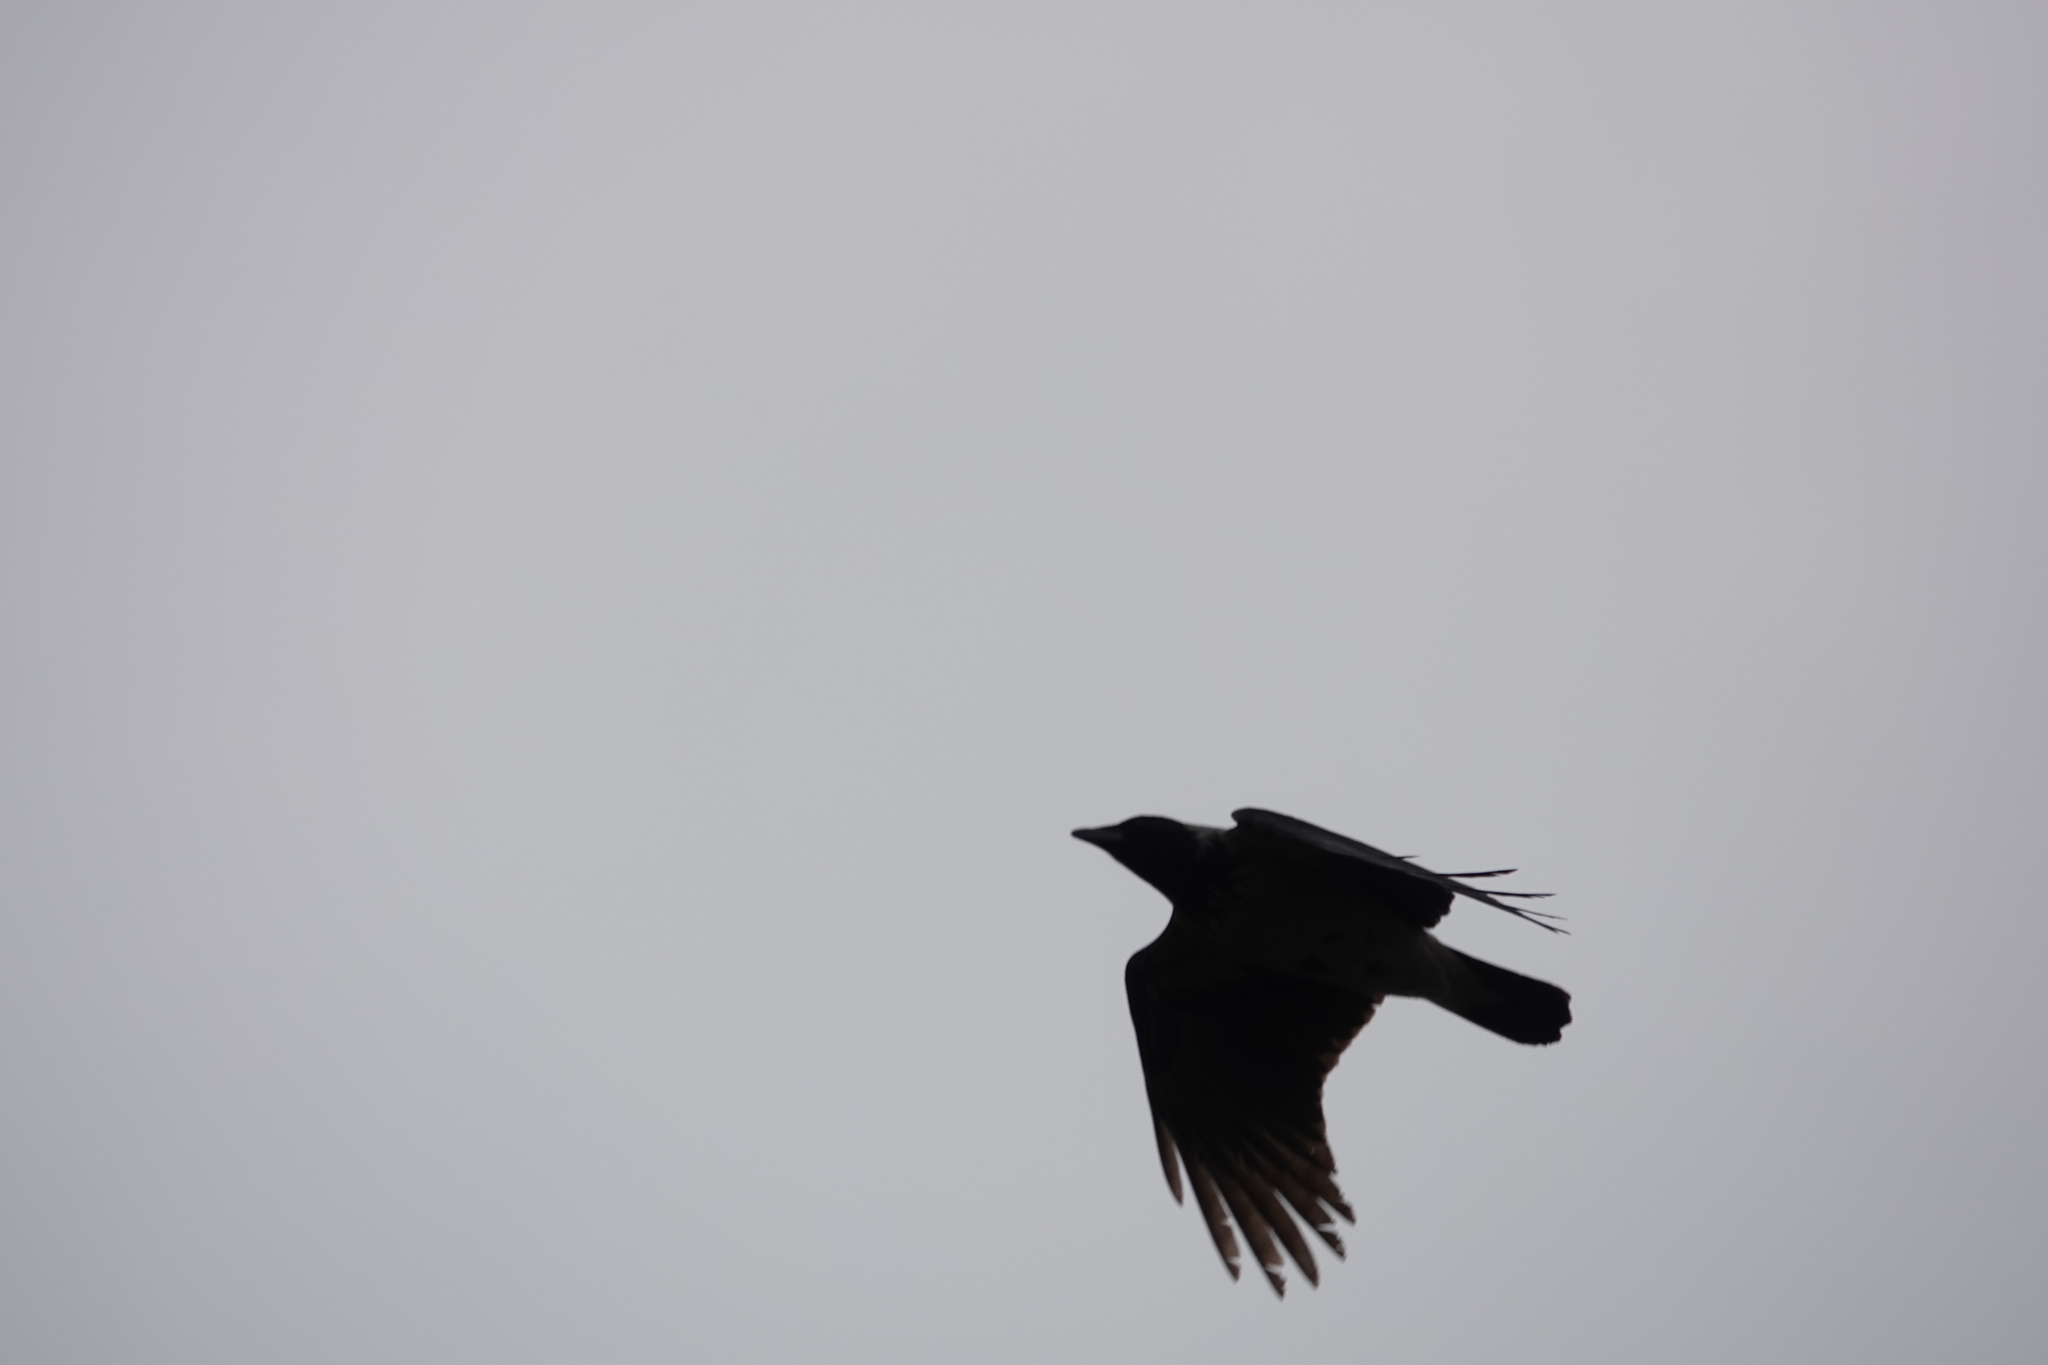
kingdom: Animalia
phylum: Chordata
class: Aves
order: Passeriformes
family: Corvidae
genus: Corvus
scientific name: Corvus cornix
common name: Hooded crow
